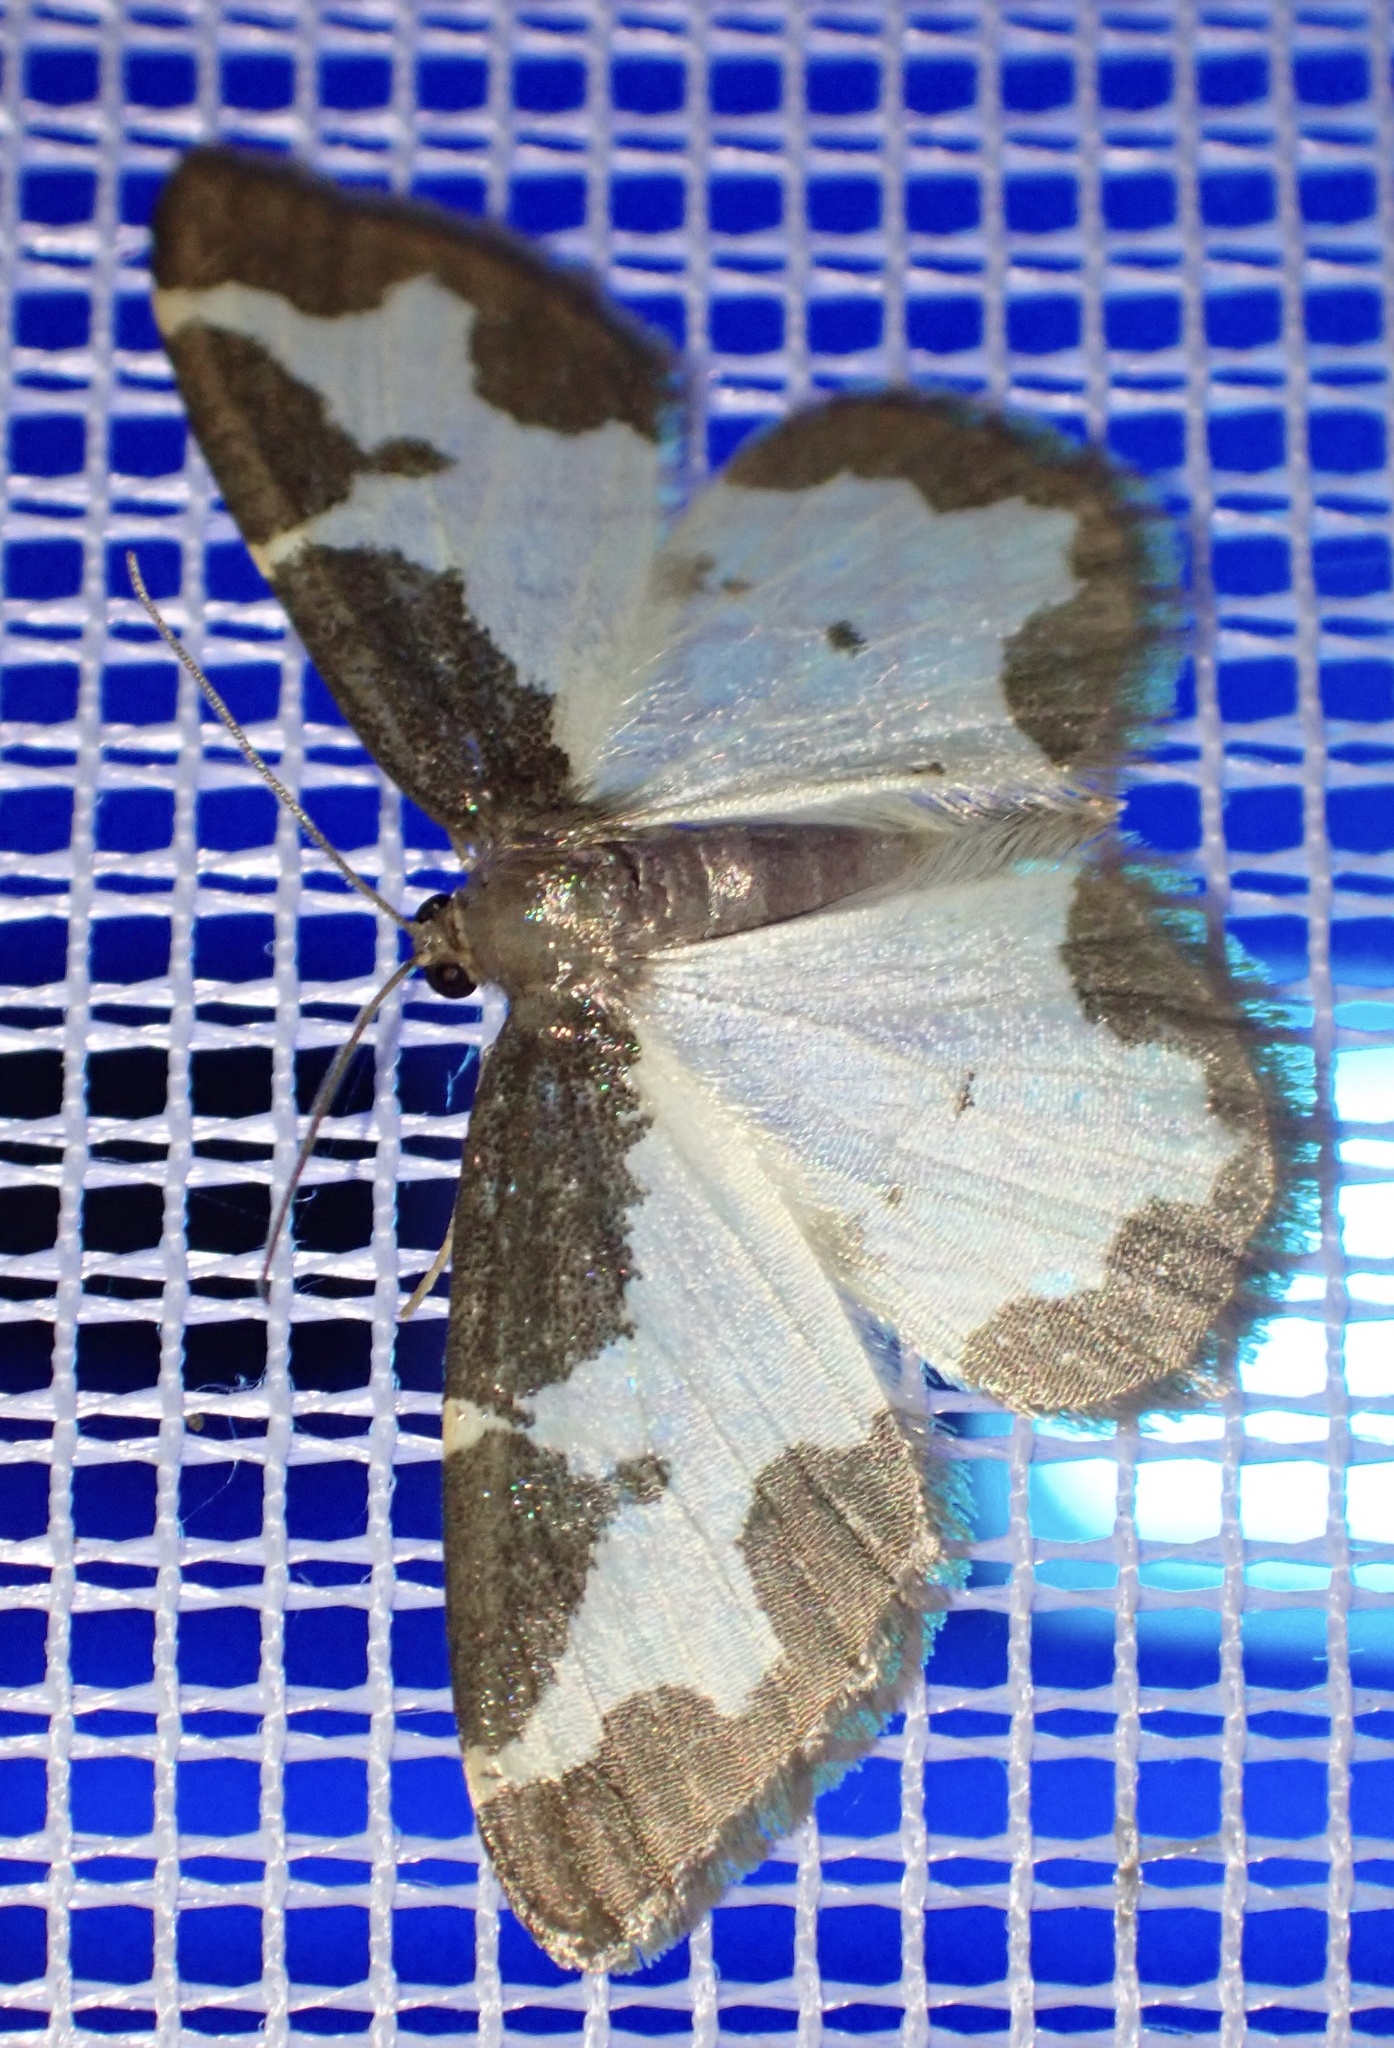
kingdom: Animalia
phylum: Arthropoda
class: Insecta
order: Lepidoptera
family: Geometridae
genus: Lomaspilis
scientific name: Lomaspilis marginata
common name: Clouded border
